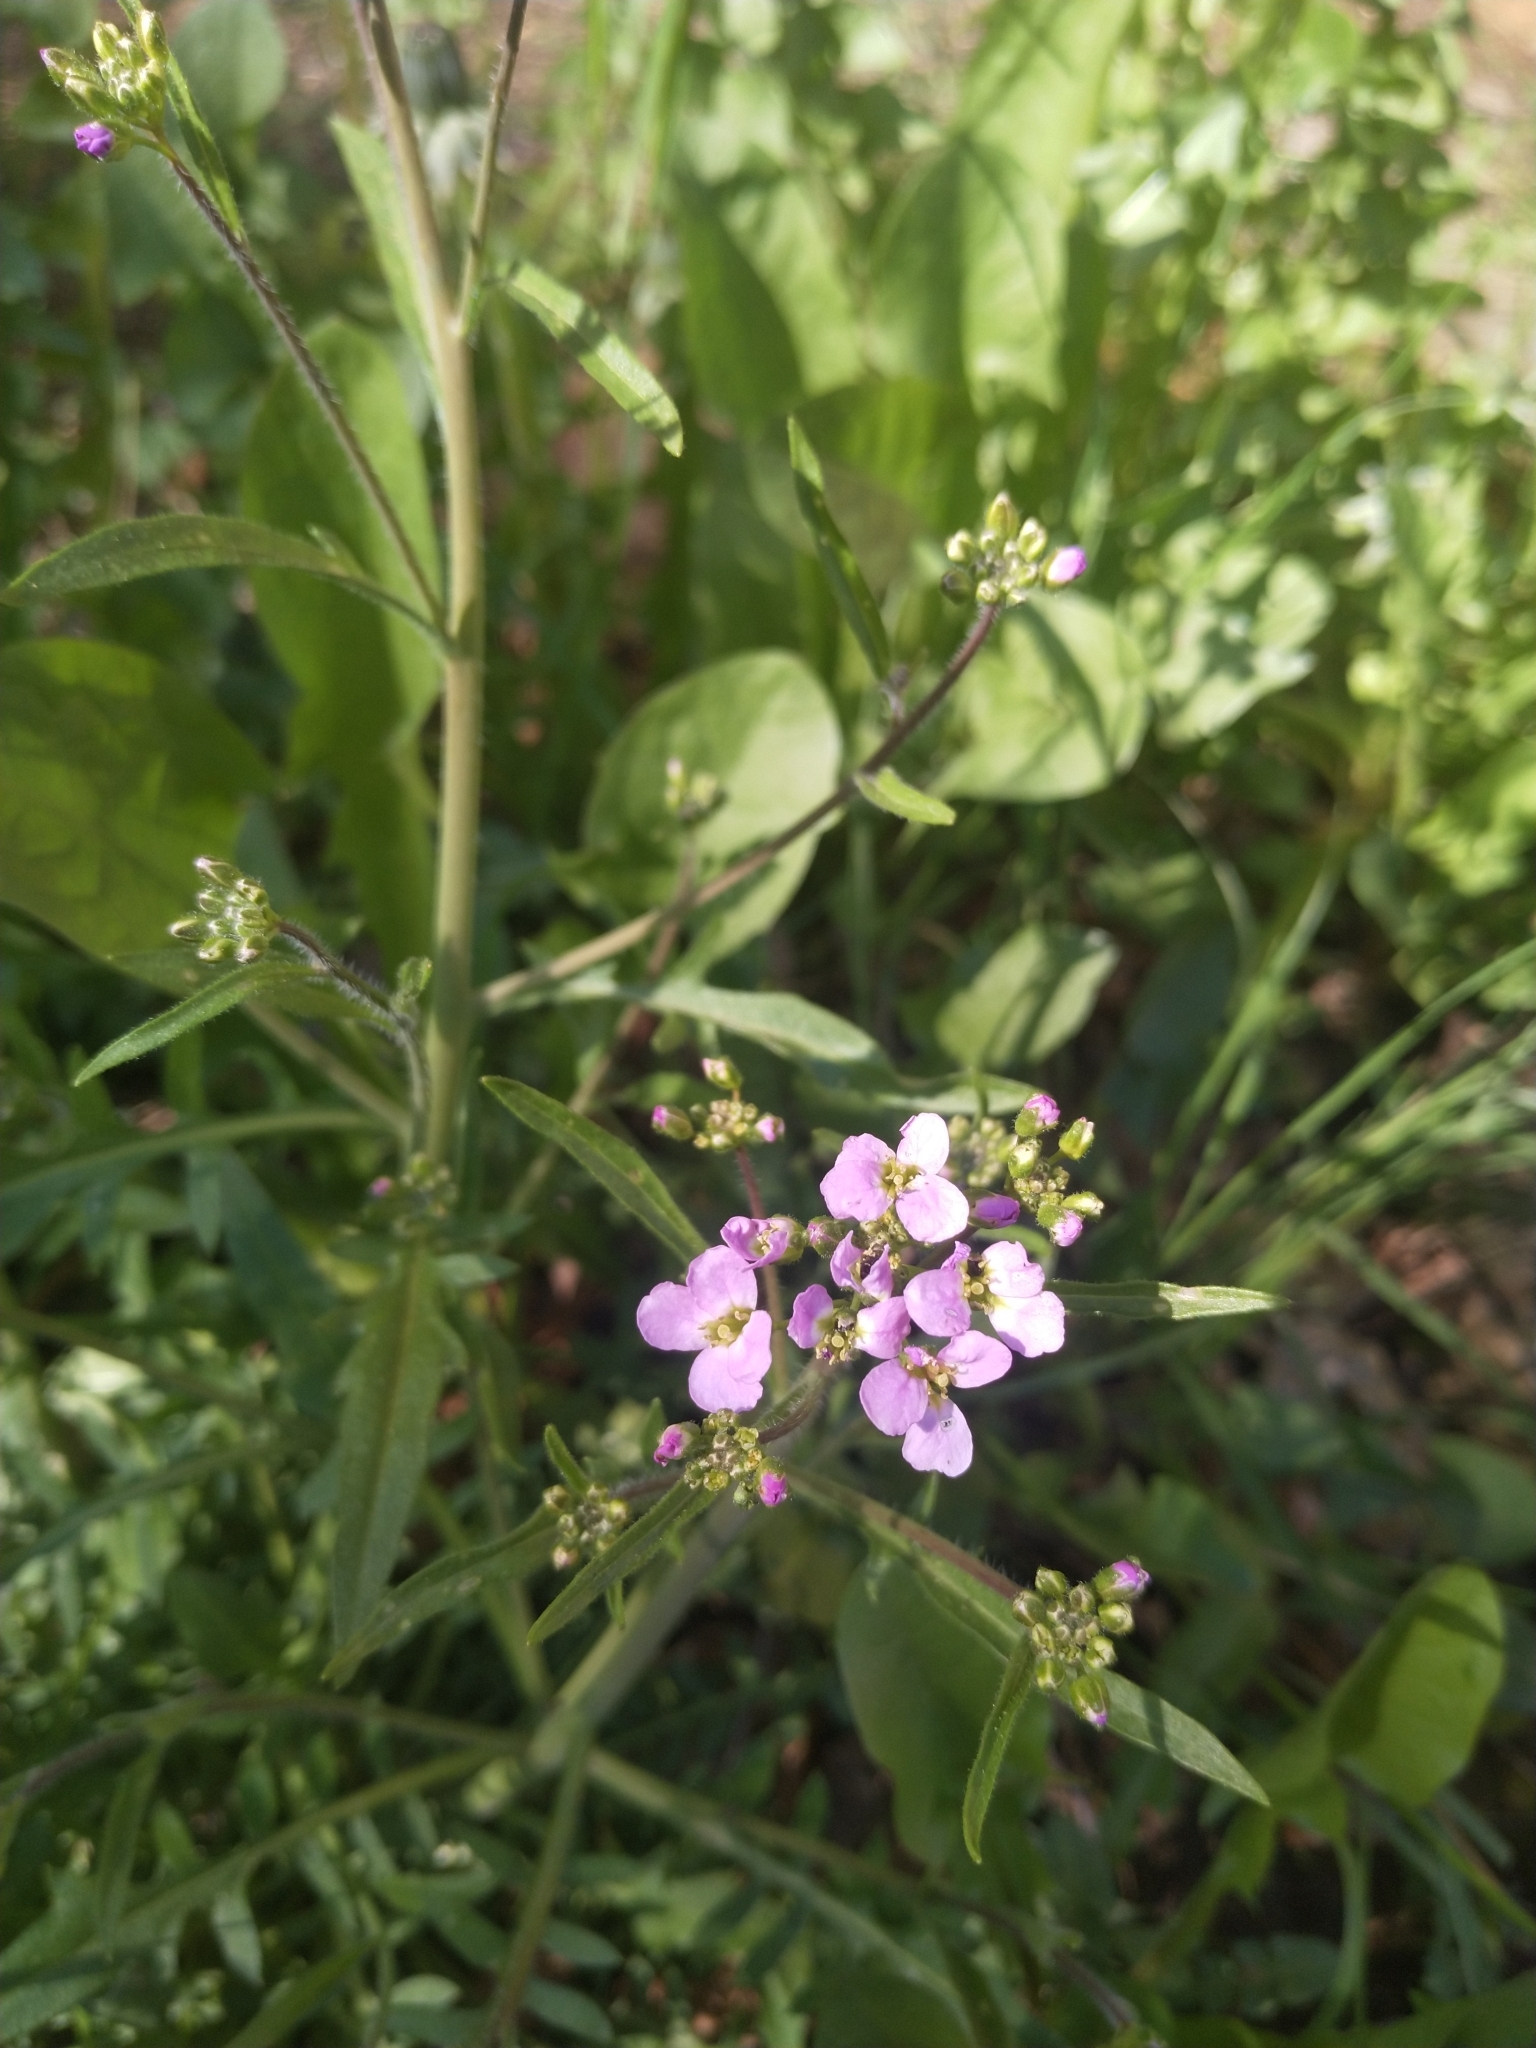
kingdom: Plantae
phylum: Tracheophyta
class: Magnoliopsida
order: Brassicales
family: Brassicaceae
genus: Arabidopsis
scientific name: Arabidopsis arenosa
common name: Sand rock-cress
